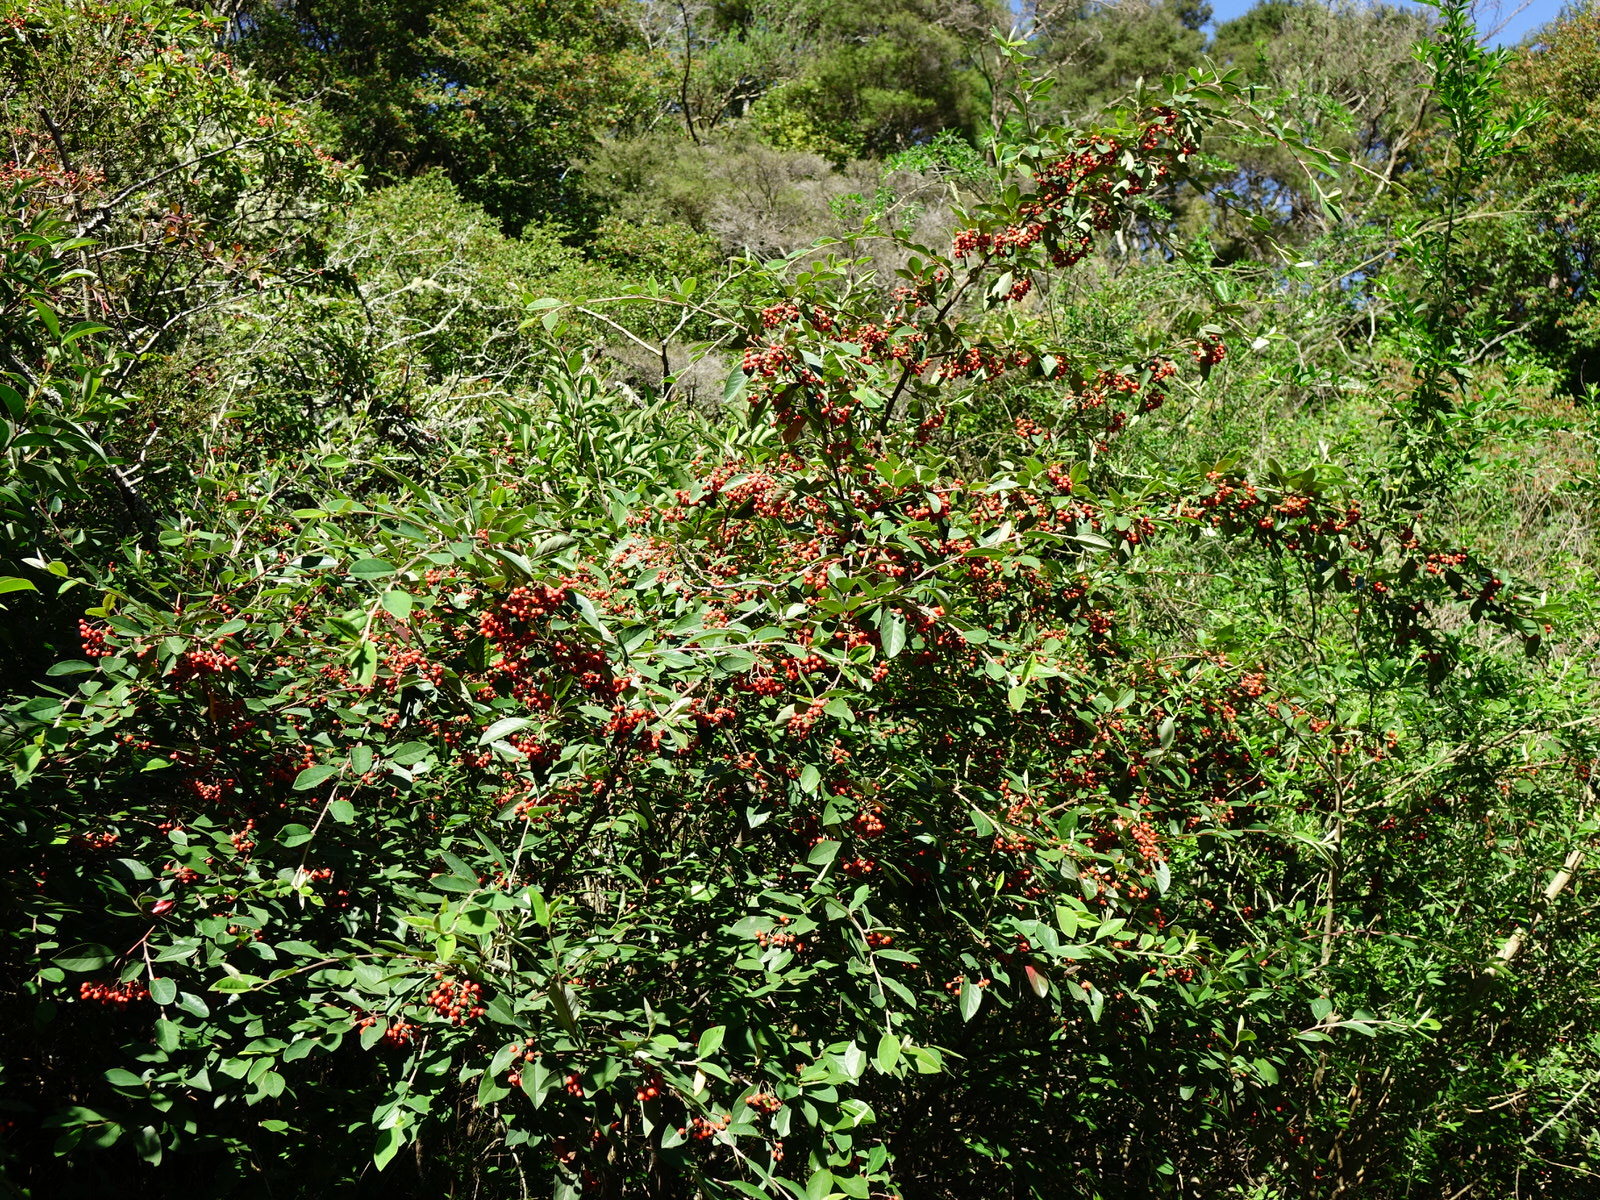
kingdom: Plantae
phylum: Tracheophyta
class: Magnoliopsida
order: Rosales
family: Rosaceae
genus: Cotoneaster
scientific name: Cotoneaster glaucophyllus
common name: Glaucous cotoneaster
